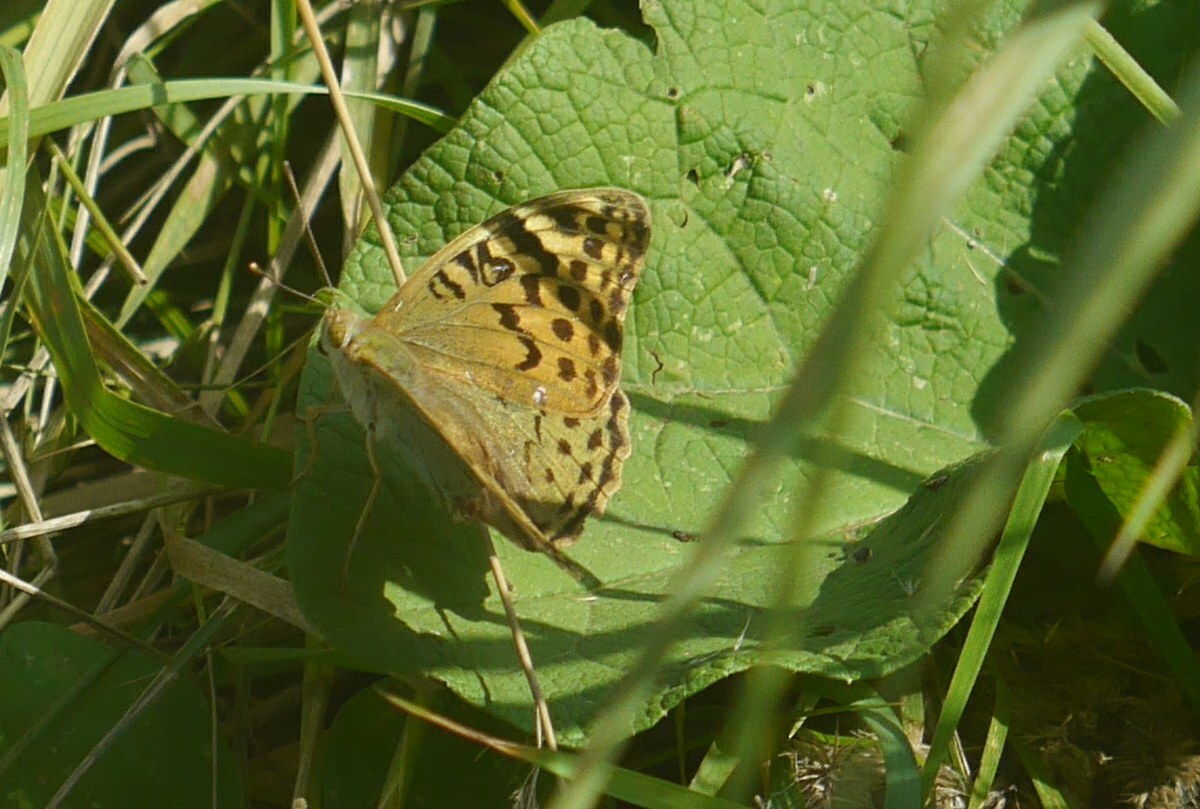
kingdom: Animalia
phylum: Arthropoda
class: Insecta
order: Lepidoptera
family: Nymphalidae
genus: Damora
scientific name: Damora pandora
